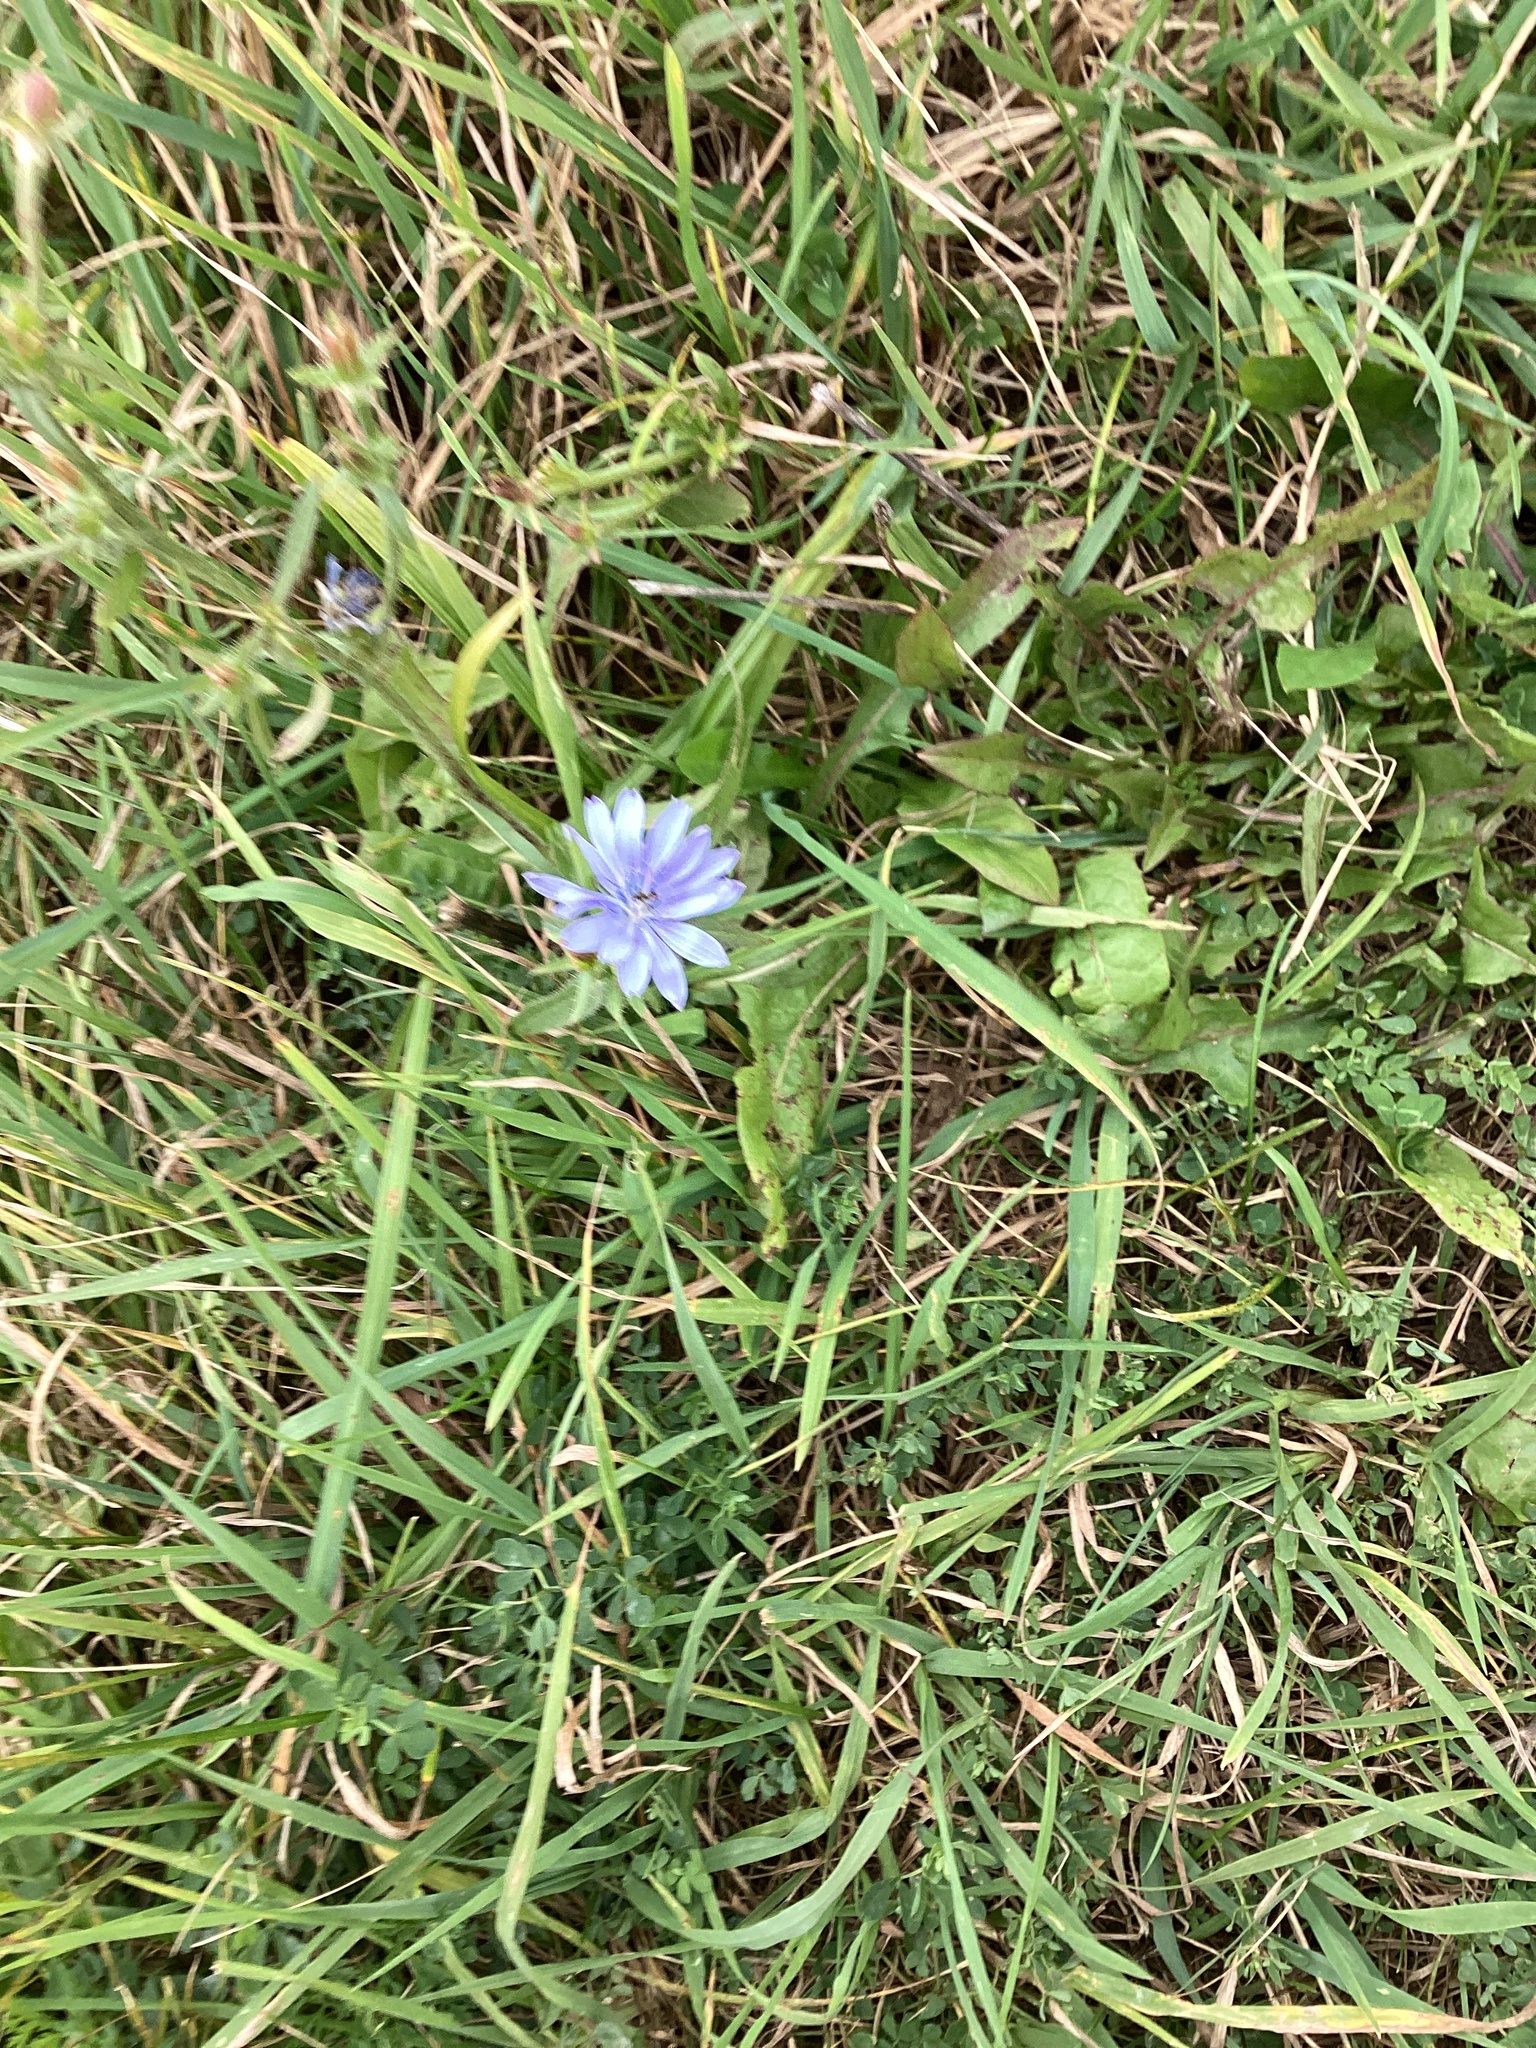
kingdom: Plantae
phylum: Tracheophyta
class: Magnoliopsida
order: Asterales
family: Asteraceae
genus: Cichorium
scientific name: Cichorium intybus
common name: Chicory
